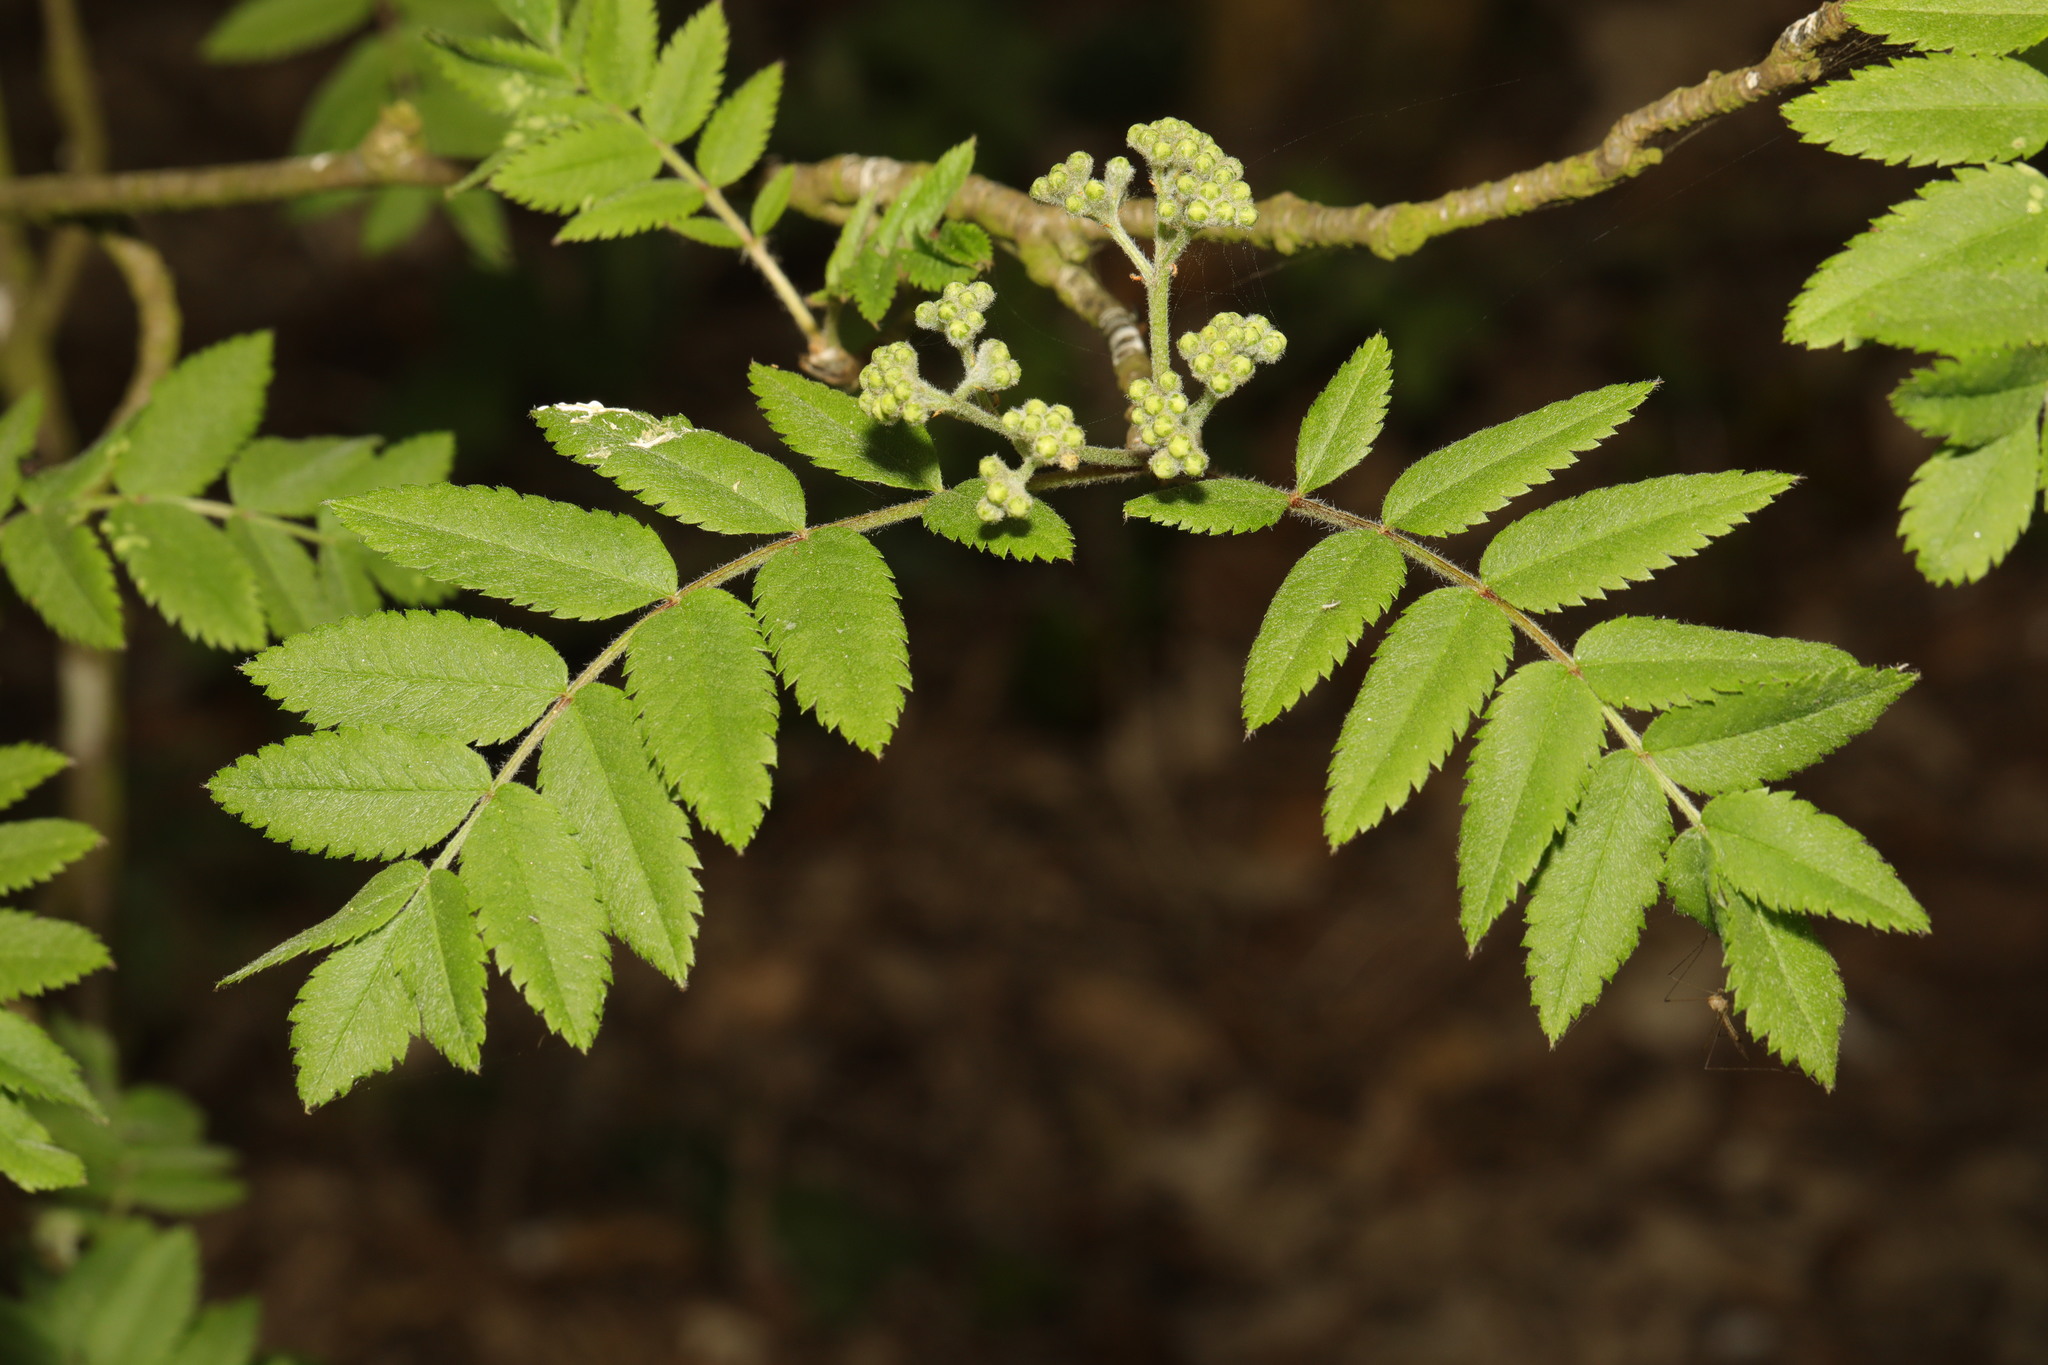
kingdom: Plantae
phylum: Tracheophyta
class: Magnoliopsida
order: Rosales
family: Rosaceae
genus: Sorbus
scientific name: Sorbus aucuparia
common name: Rowan
